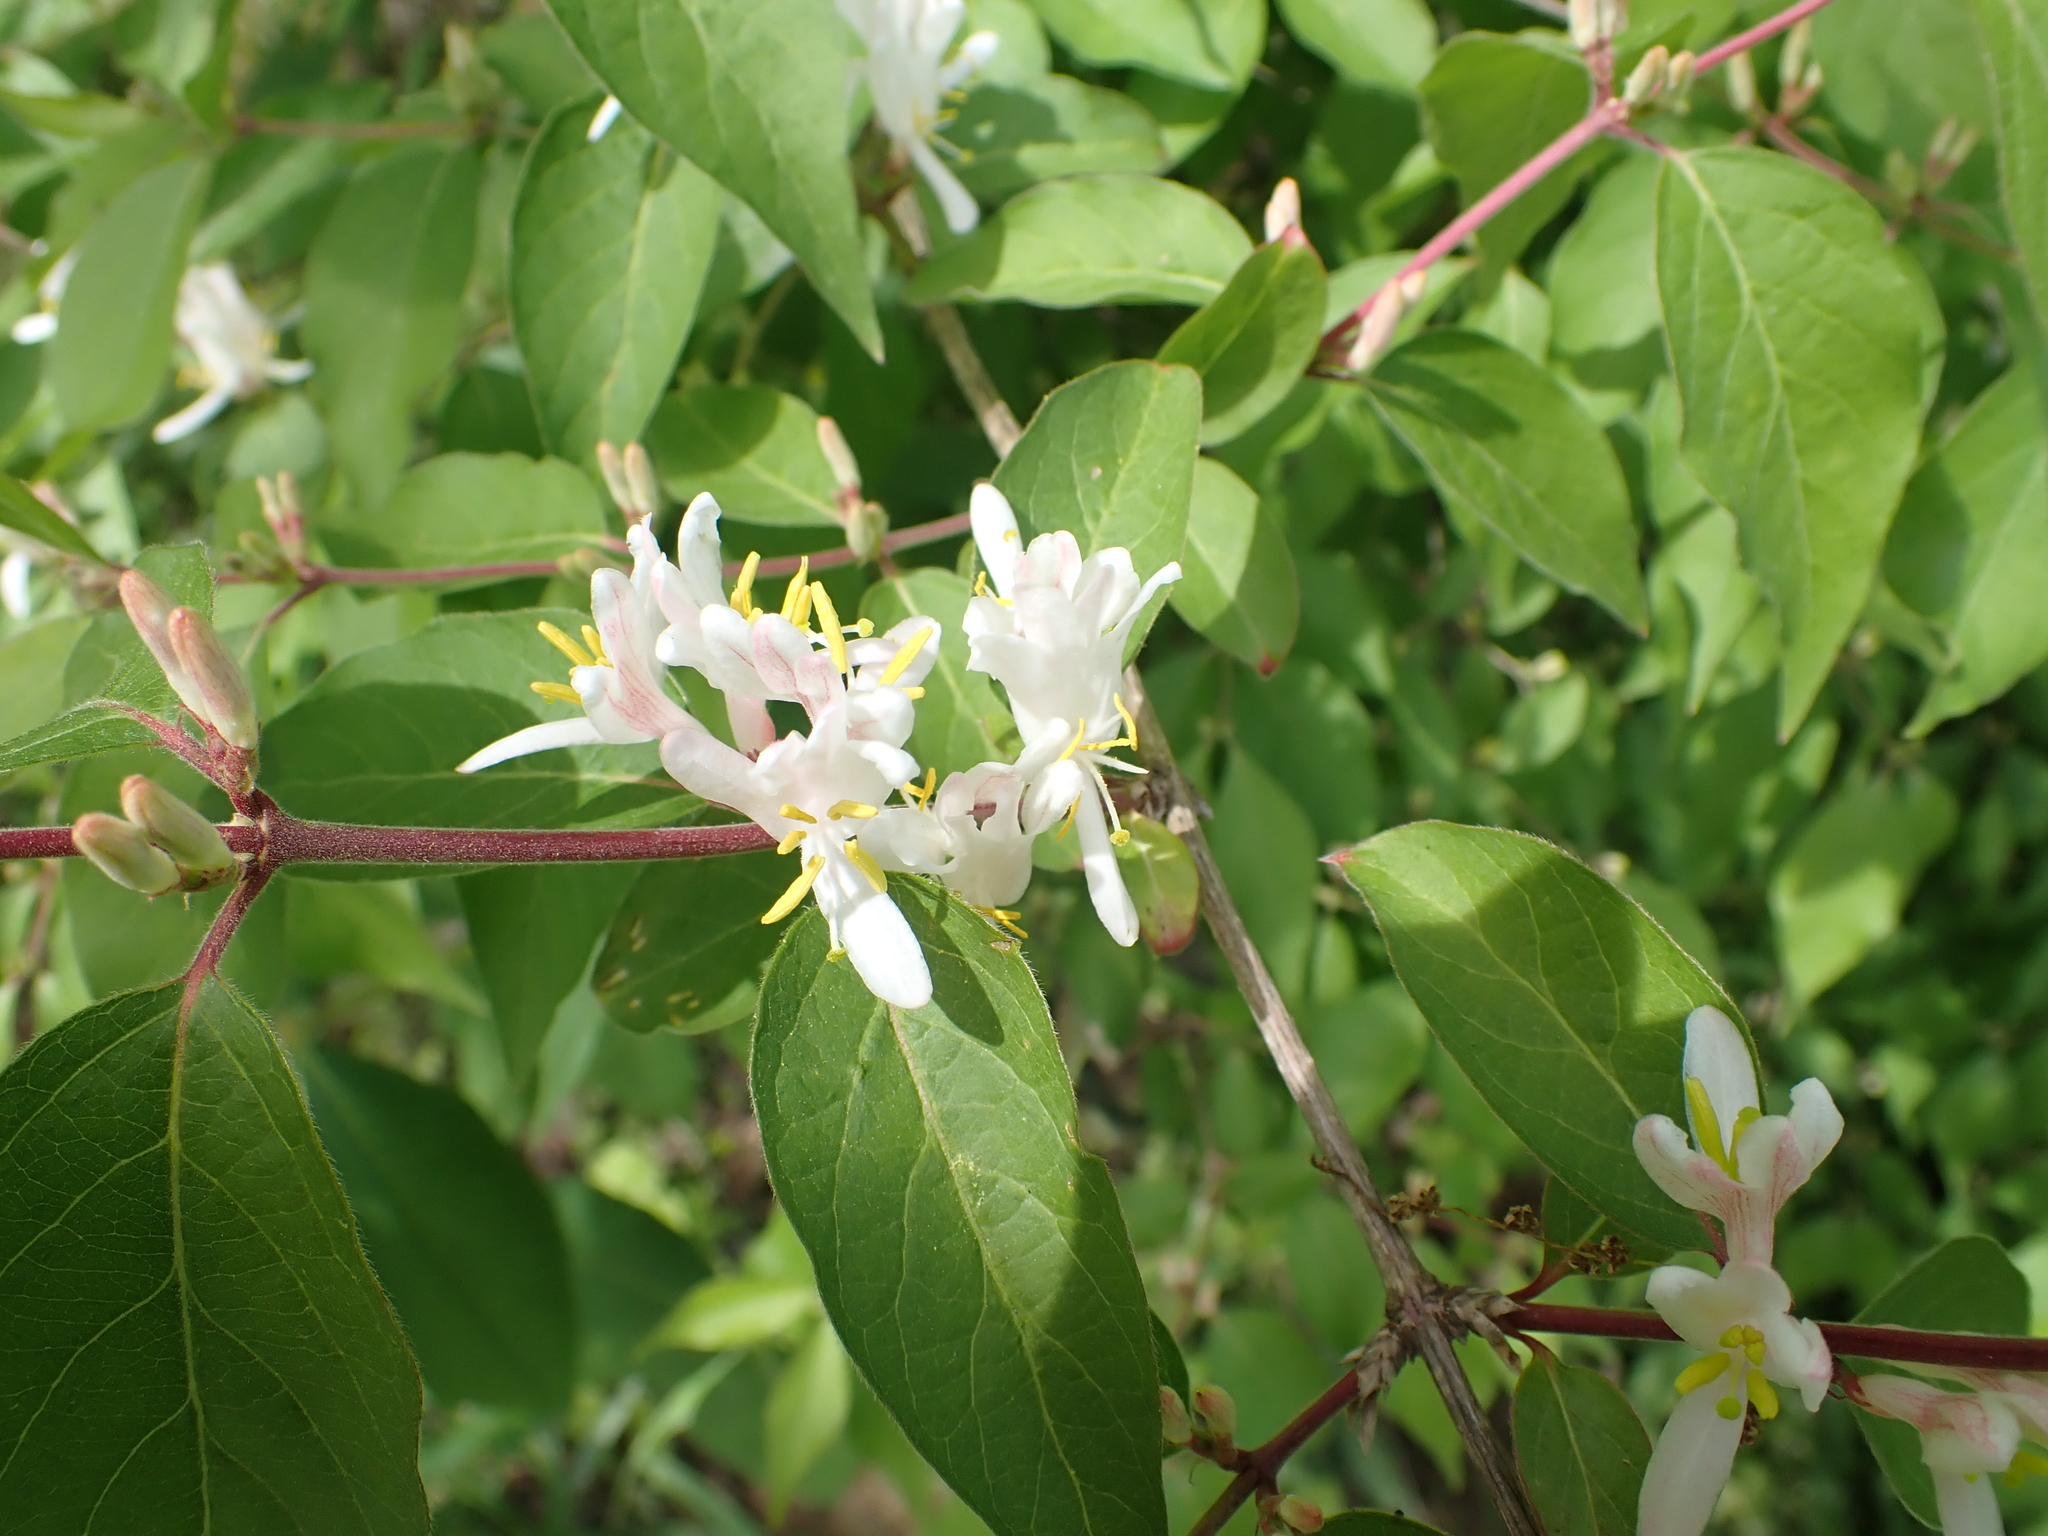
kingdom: Plantae
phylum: Tracheophyta
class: Magnoliopsida
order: Dipsacales
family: Caprifoliaceae
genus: Lonicera
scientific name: Lonicera maackii
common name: Amur honeysuckle
